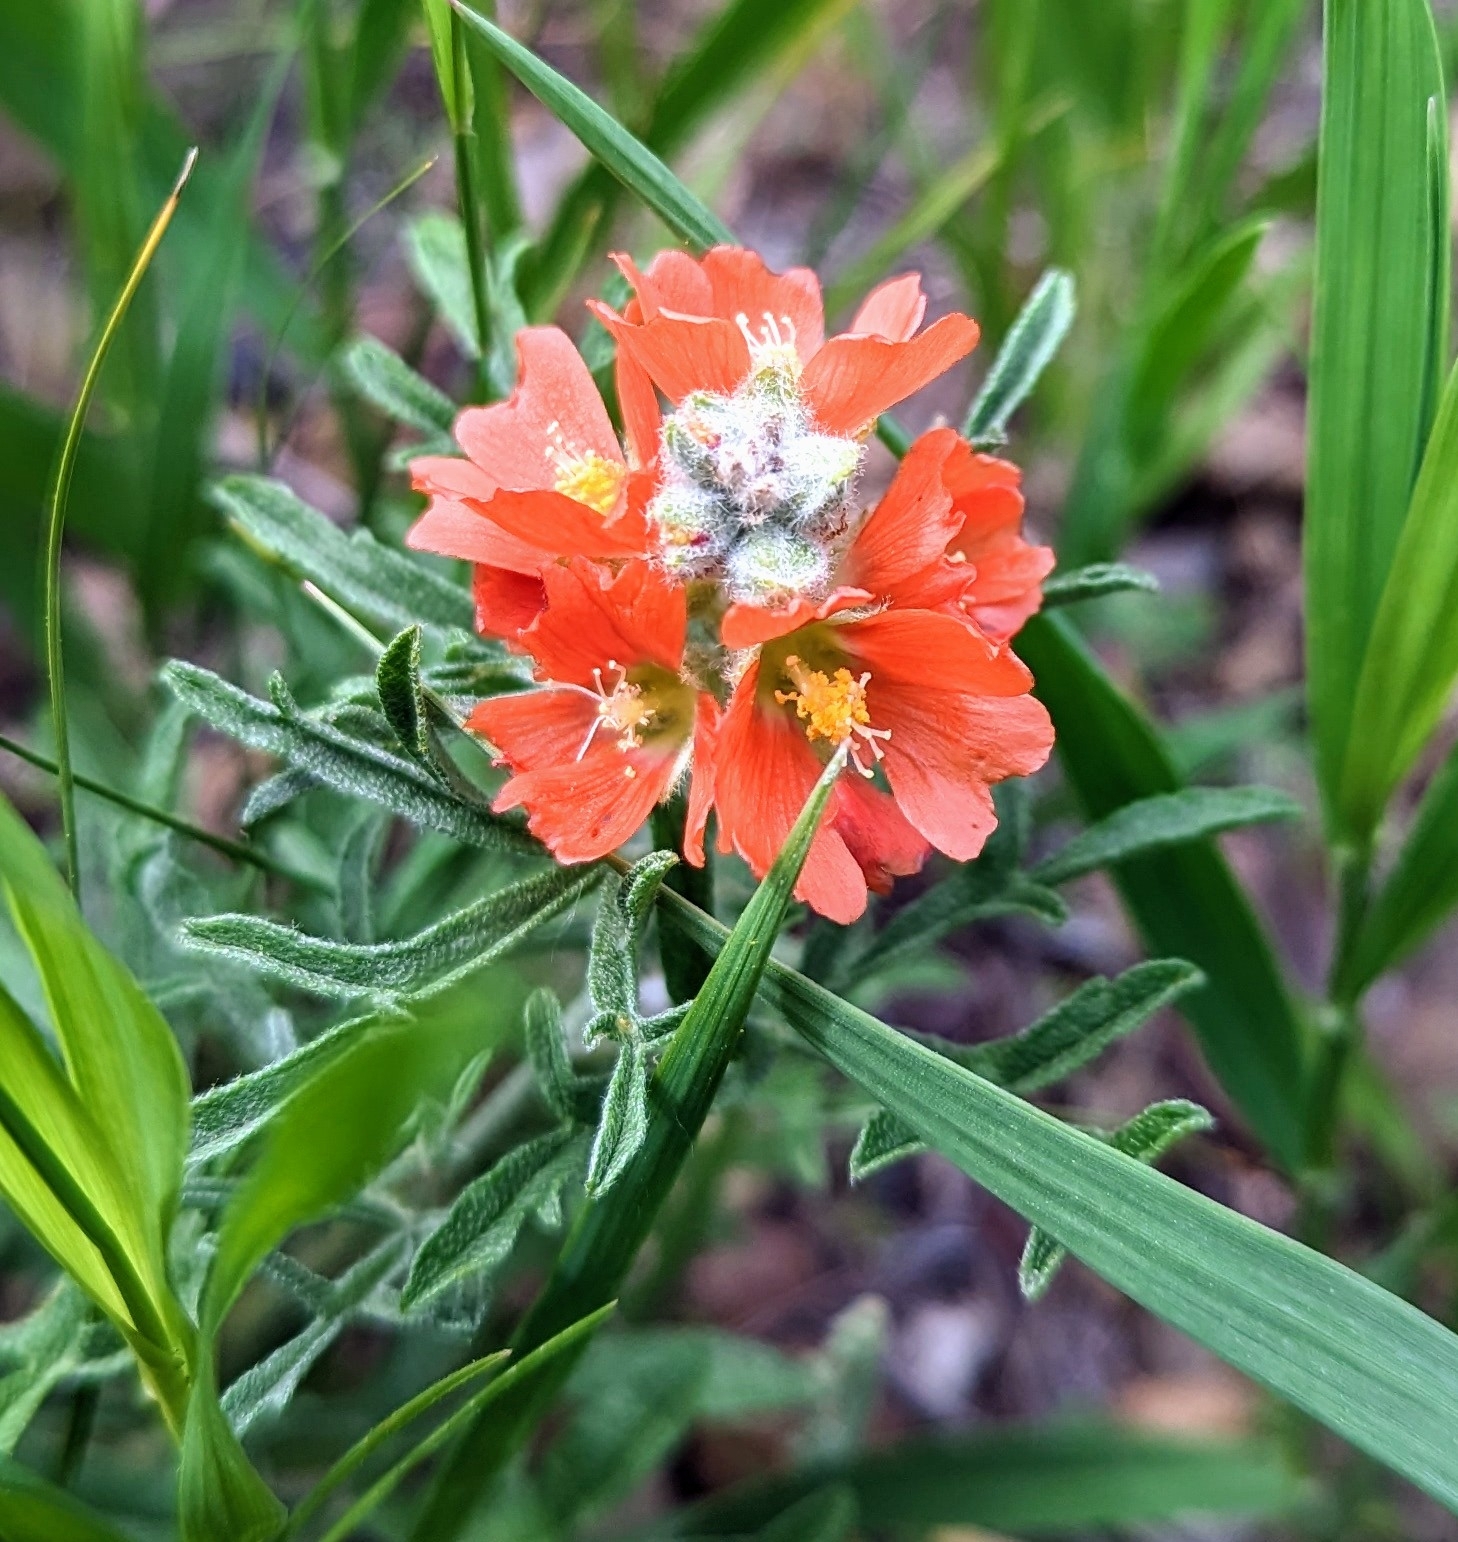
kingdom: Plantae
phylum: Tracheophyta
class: Magnoliopsida
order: Malvales
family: Malvaceae
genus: Sphaeralcea
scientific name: Sphaeralcea coccinea
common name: Moss-rose
